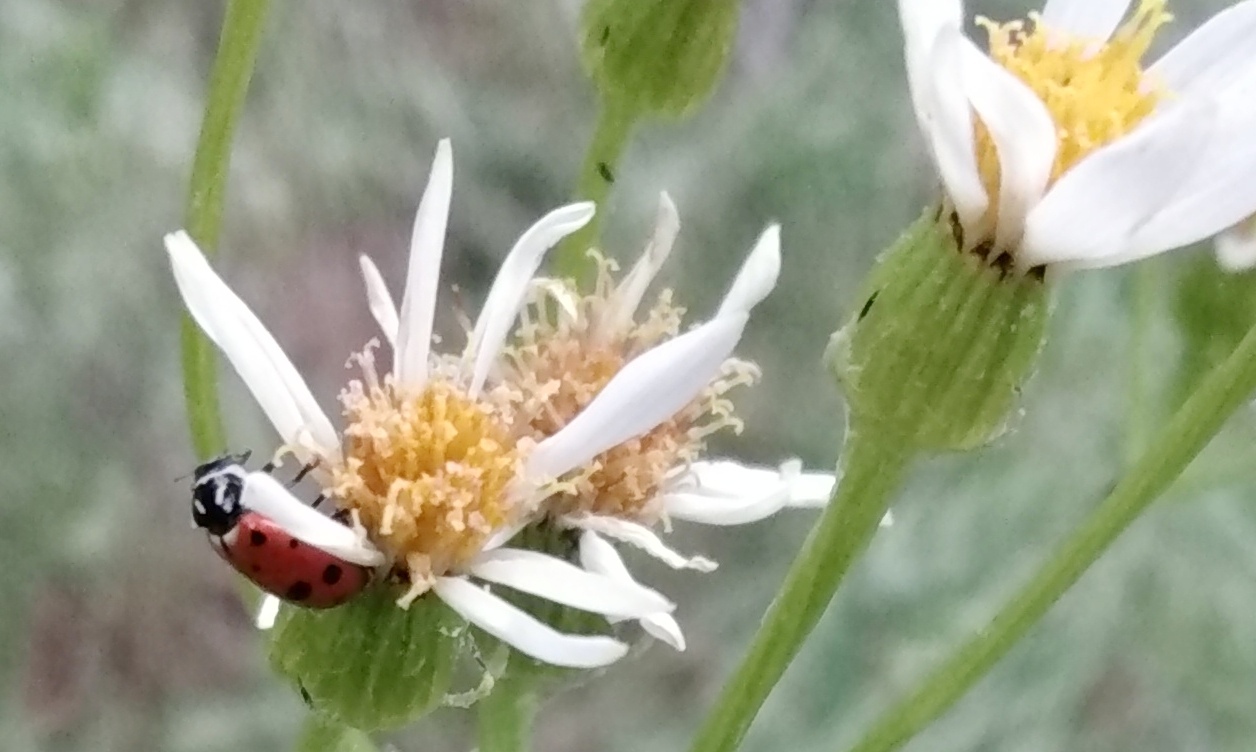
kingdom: Animalia
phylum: Arthropoda
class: Insecta
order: Coleoptera
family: Coccinellidae
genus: Hippodamia
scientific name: Hippodamia convergens
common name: Convergent lady beetle
